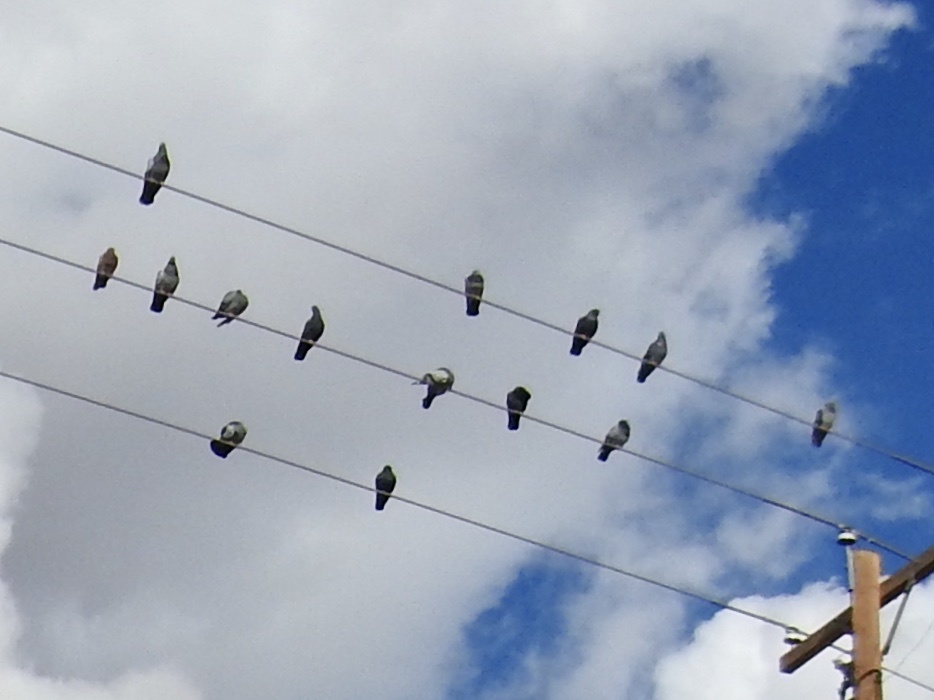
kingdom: Animalia
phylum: Chordata
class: Aves
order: Columbiformes
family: Columbidae
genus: Columba
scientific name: Columba livia
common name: Rock pigeon
